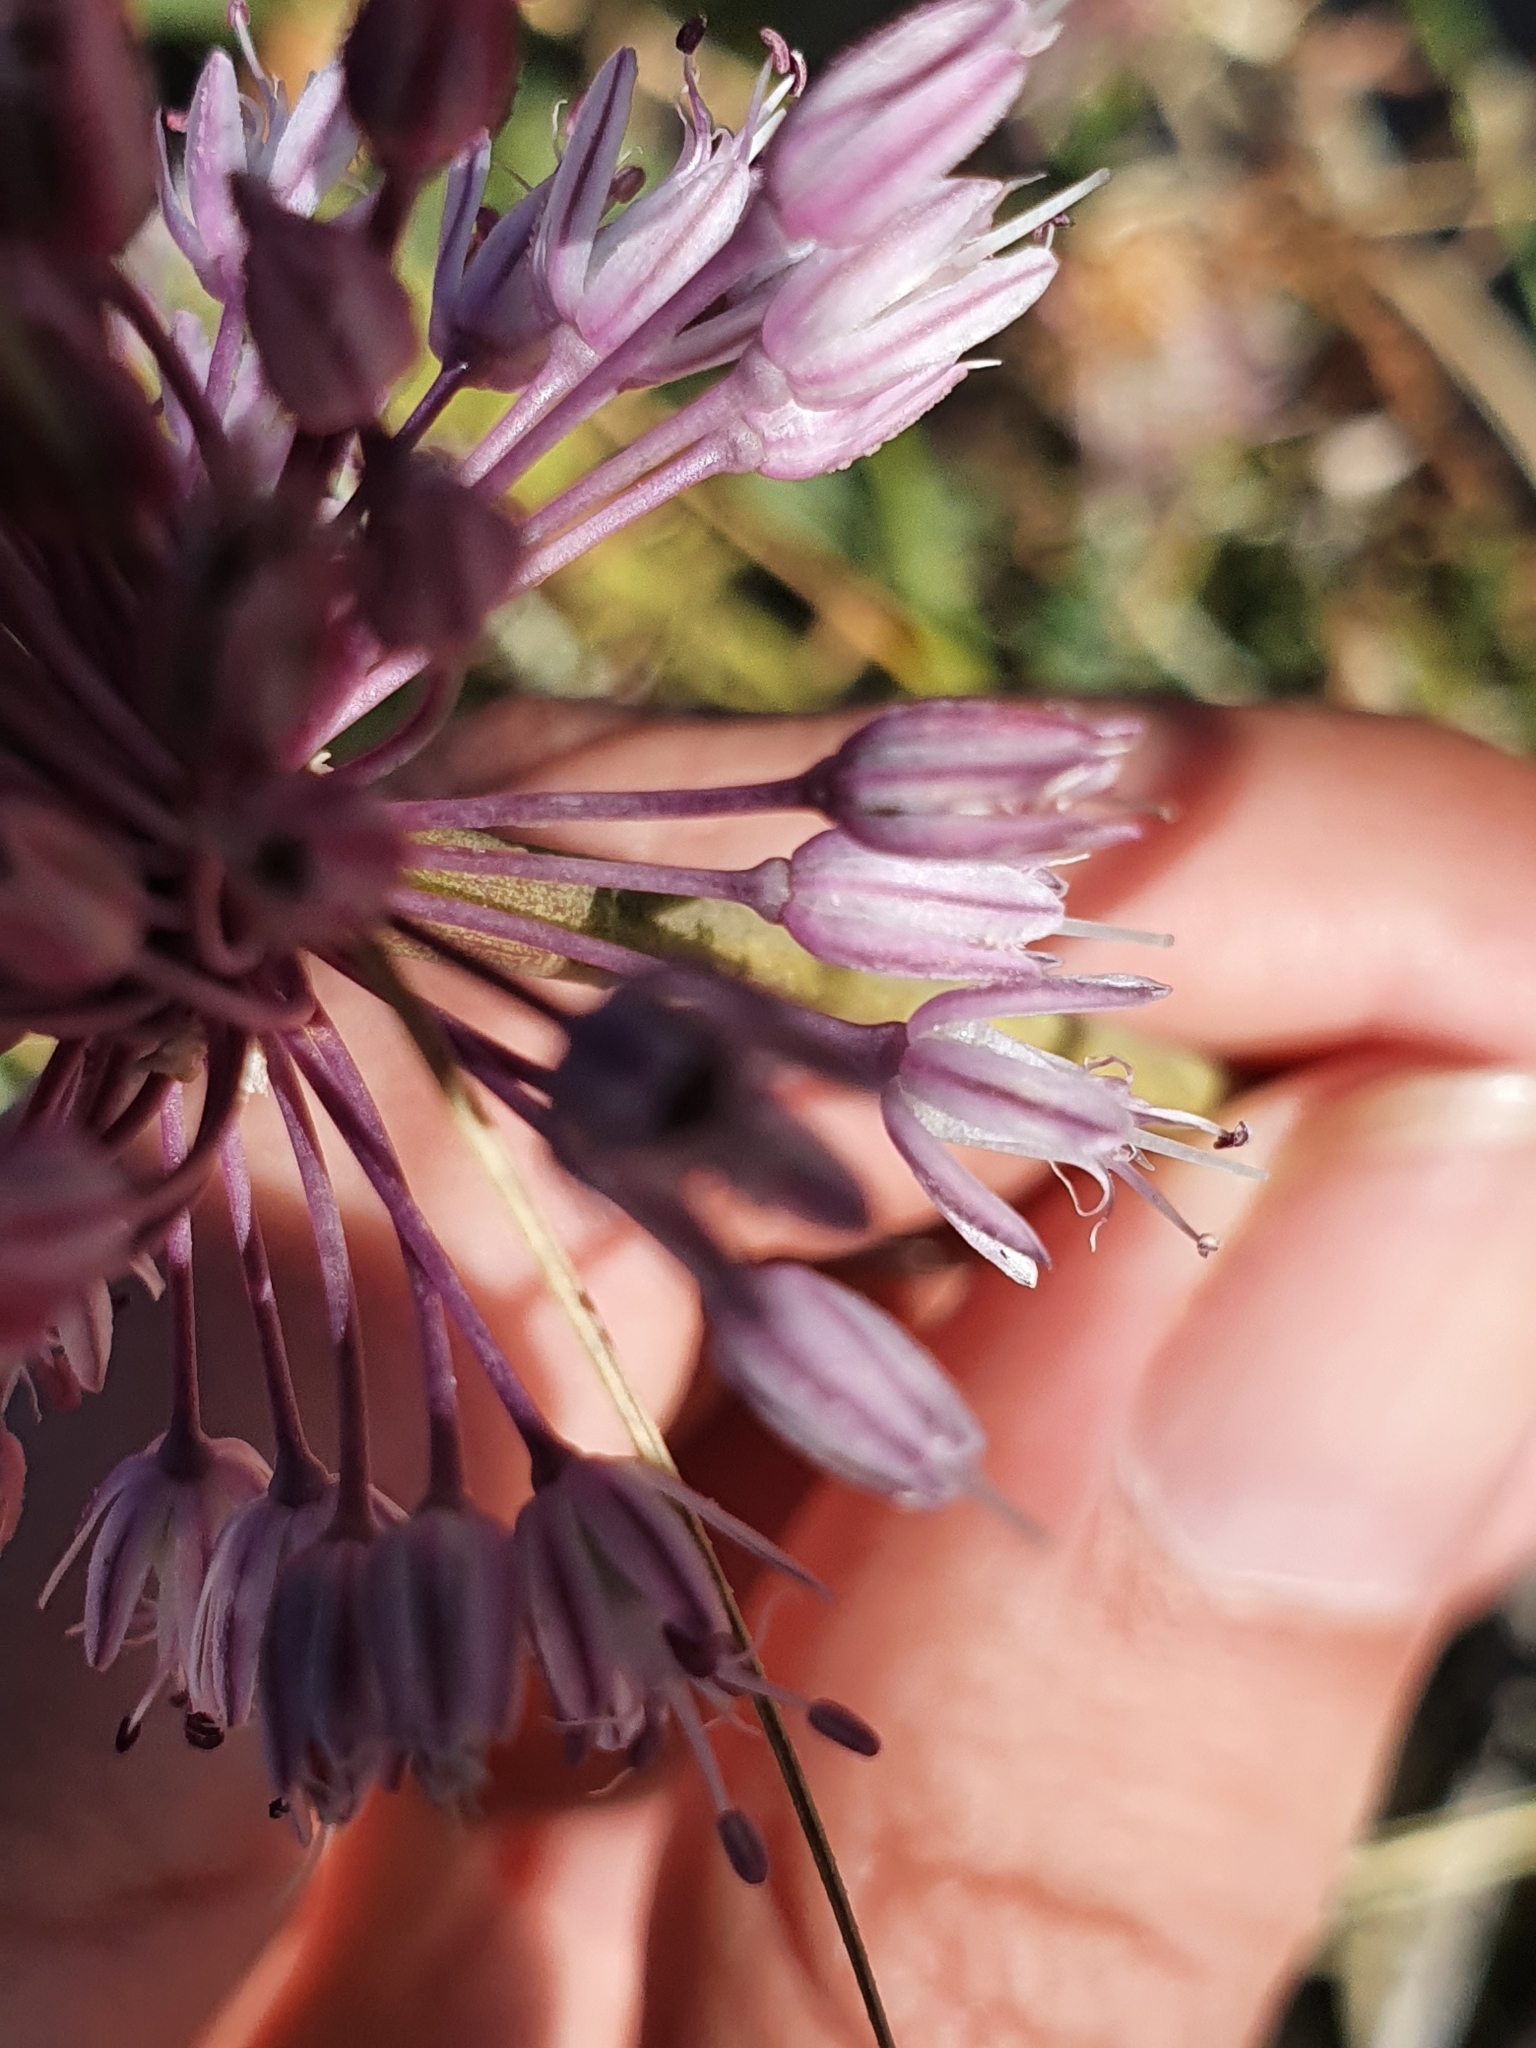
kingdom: Plantae
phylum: Tracheophyta
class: Liliopsida
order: Asparagales
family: Amaryllidaceae
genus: Allium
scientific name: Allium multiflorum
